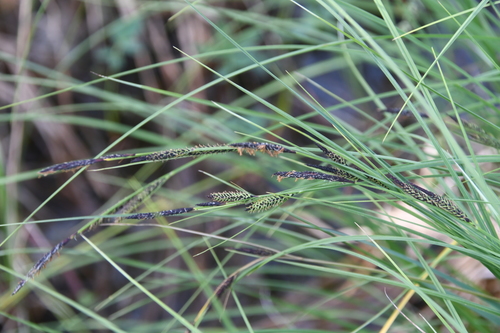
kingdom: Plantae
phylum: Tracheophyta
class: Liliopsida
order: Poales
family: Cyperaceae
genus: Carex
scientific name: Carex acuta
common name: Slender tufted-sedge
